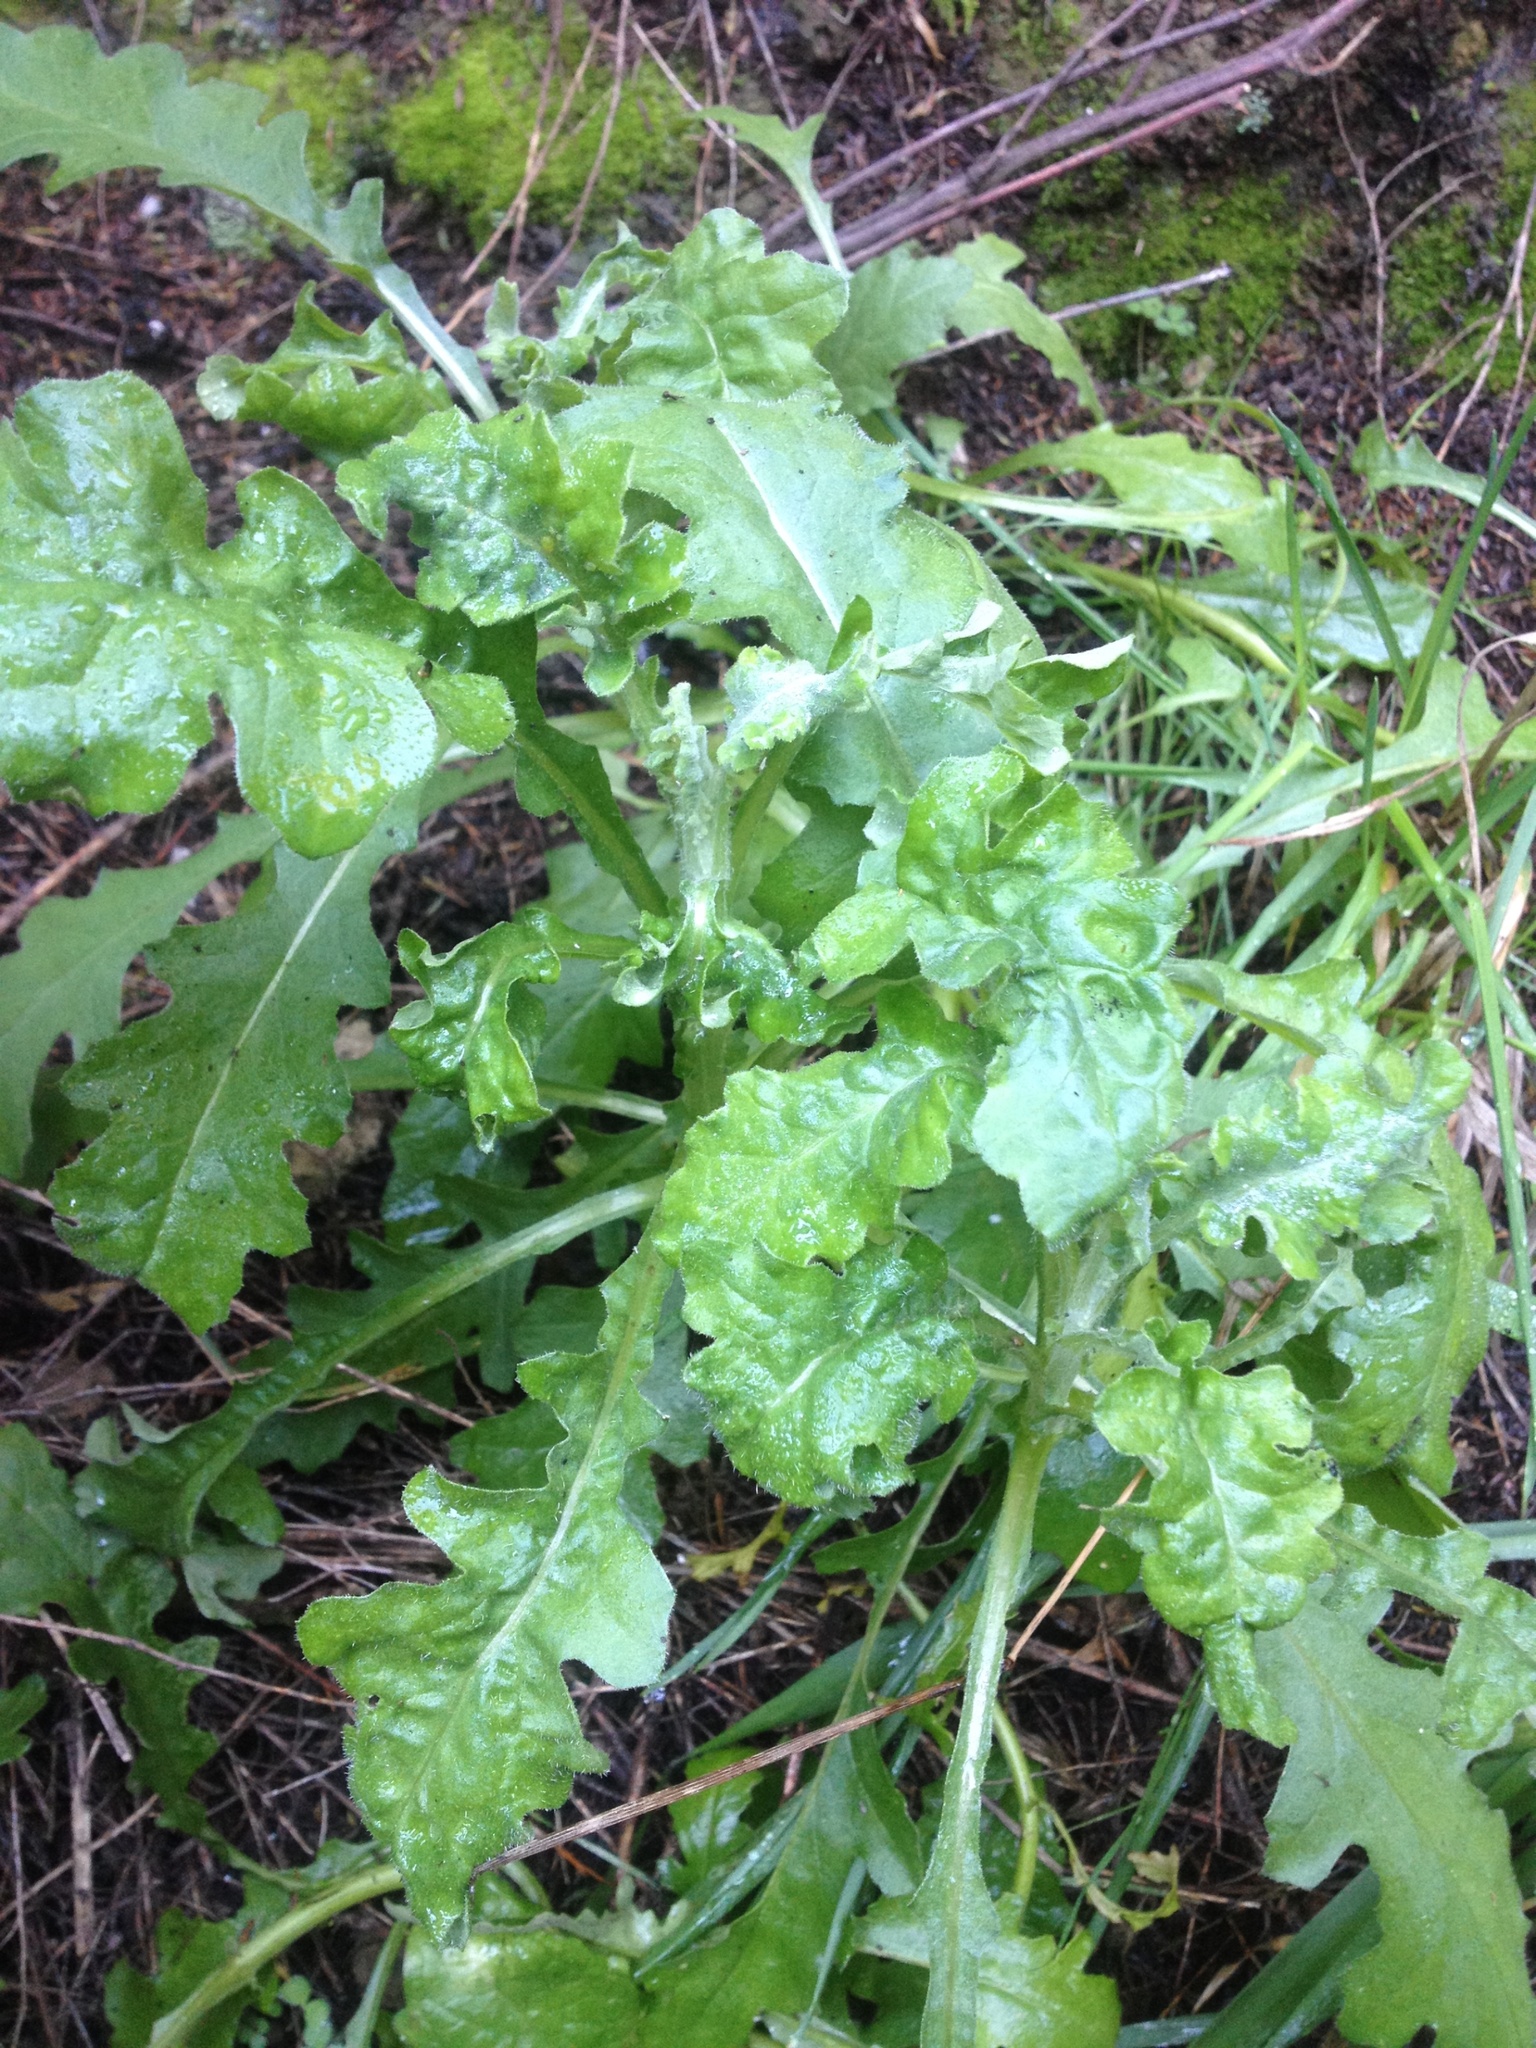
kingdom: Plantae
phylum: Tracheophyta
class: Magnoliopsida
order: Asterales
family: Asteraceae
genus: Senecio
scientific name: Senecio glomeratus
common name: Cutleaf burnweed
